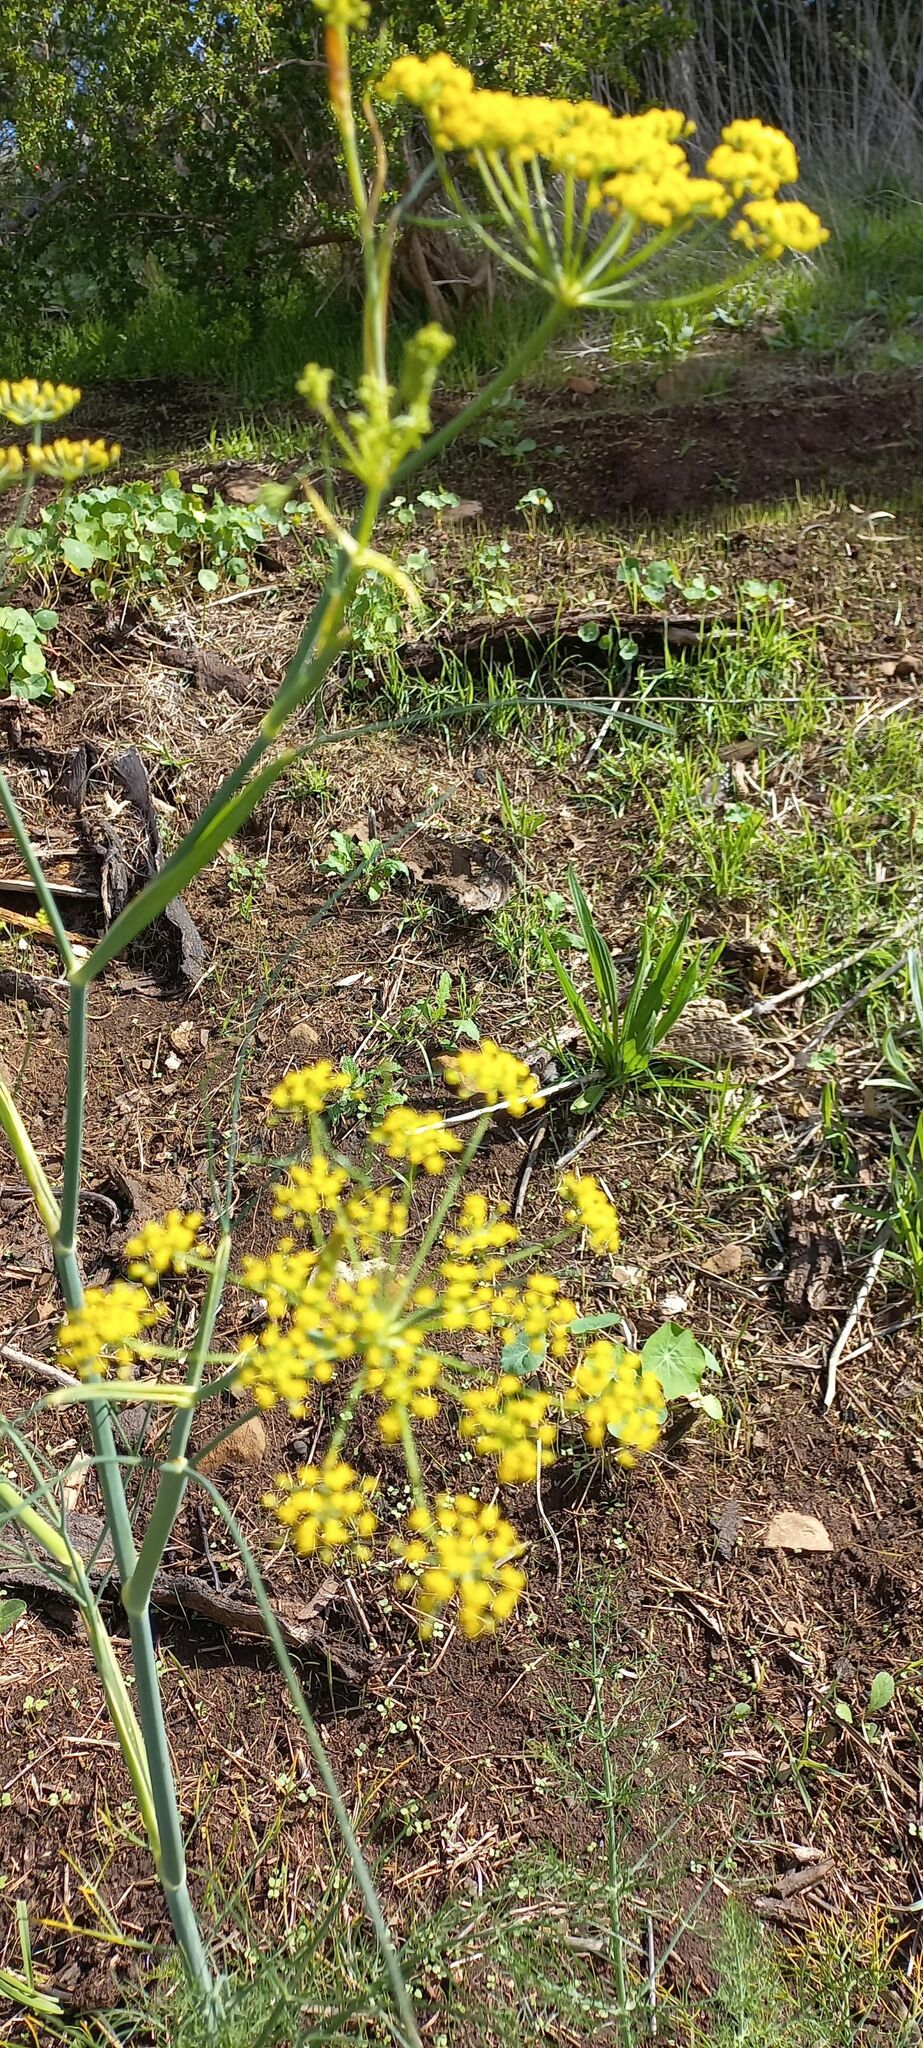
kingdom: Plantae
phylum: Tracheophyta
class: Magnoliopsida
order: Apiales
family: Apiaceae
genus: Foeniculum
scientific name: Foeniculum vulgare
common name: Fennel
